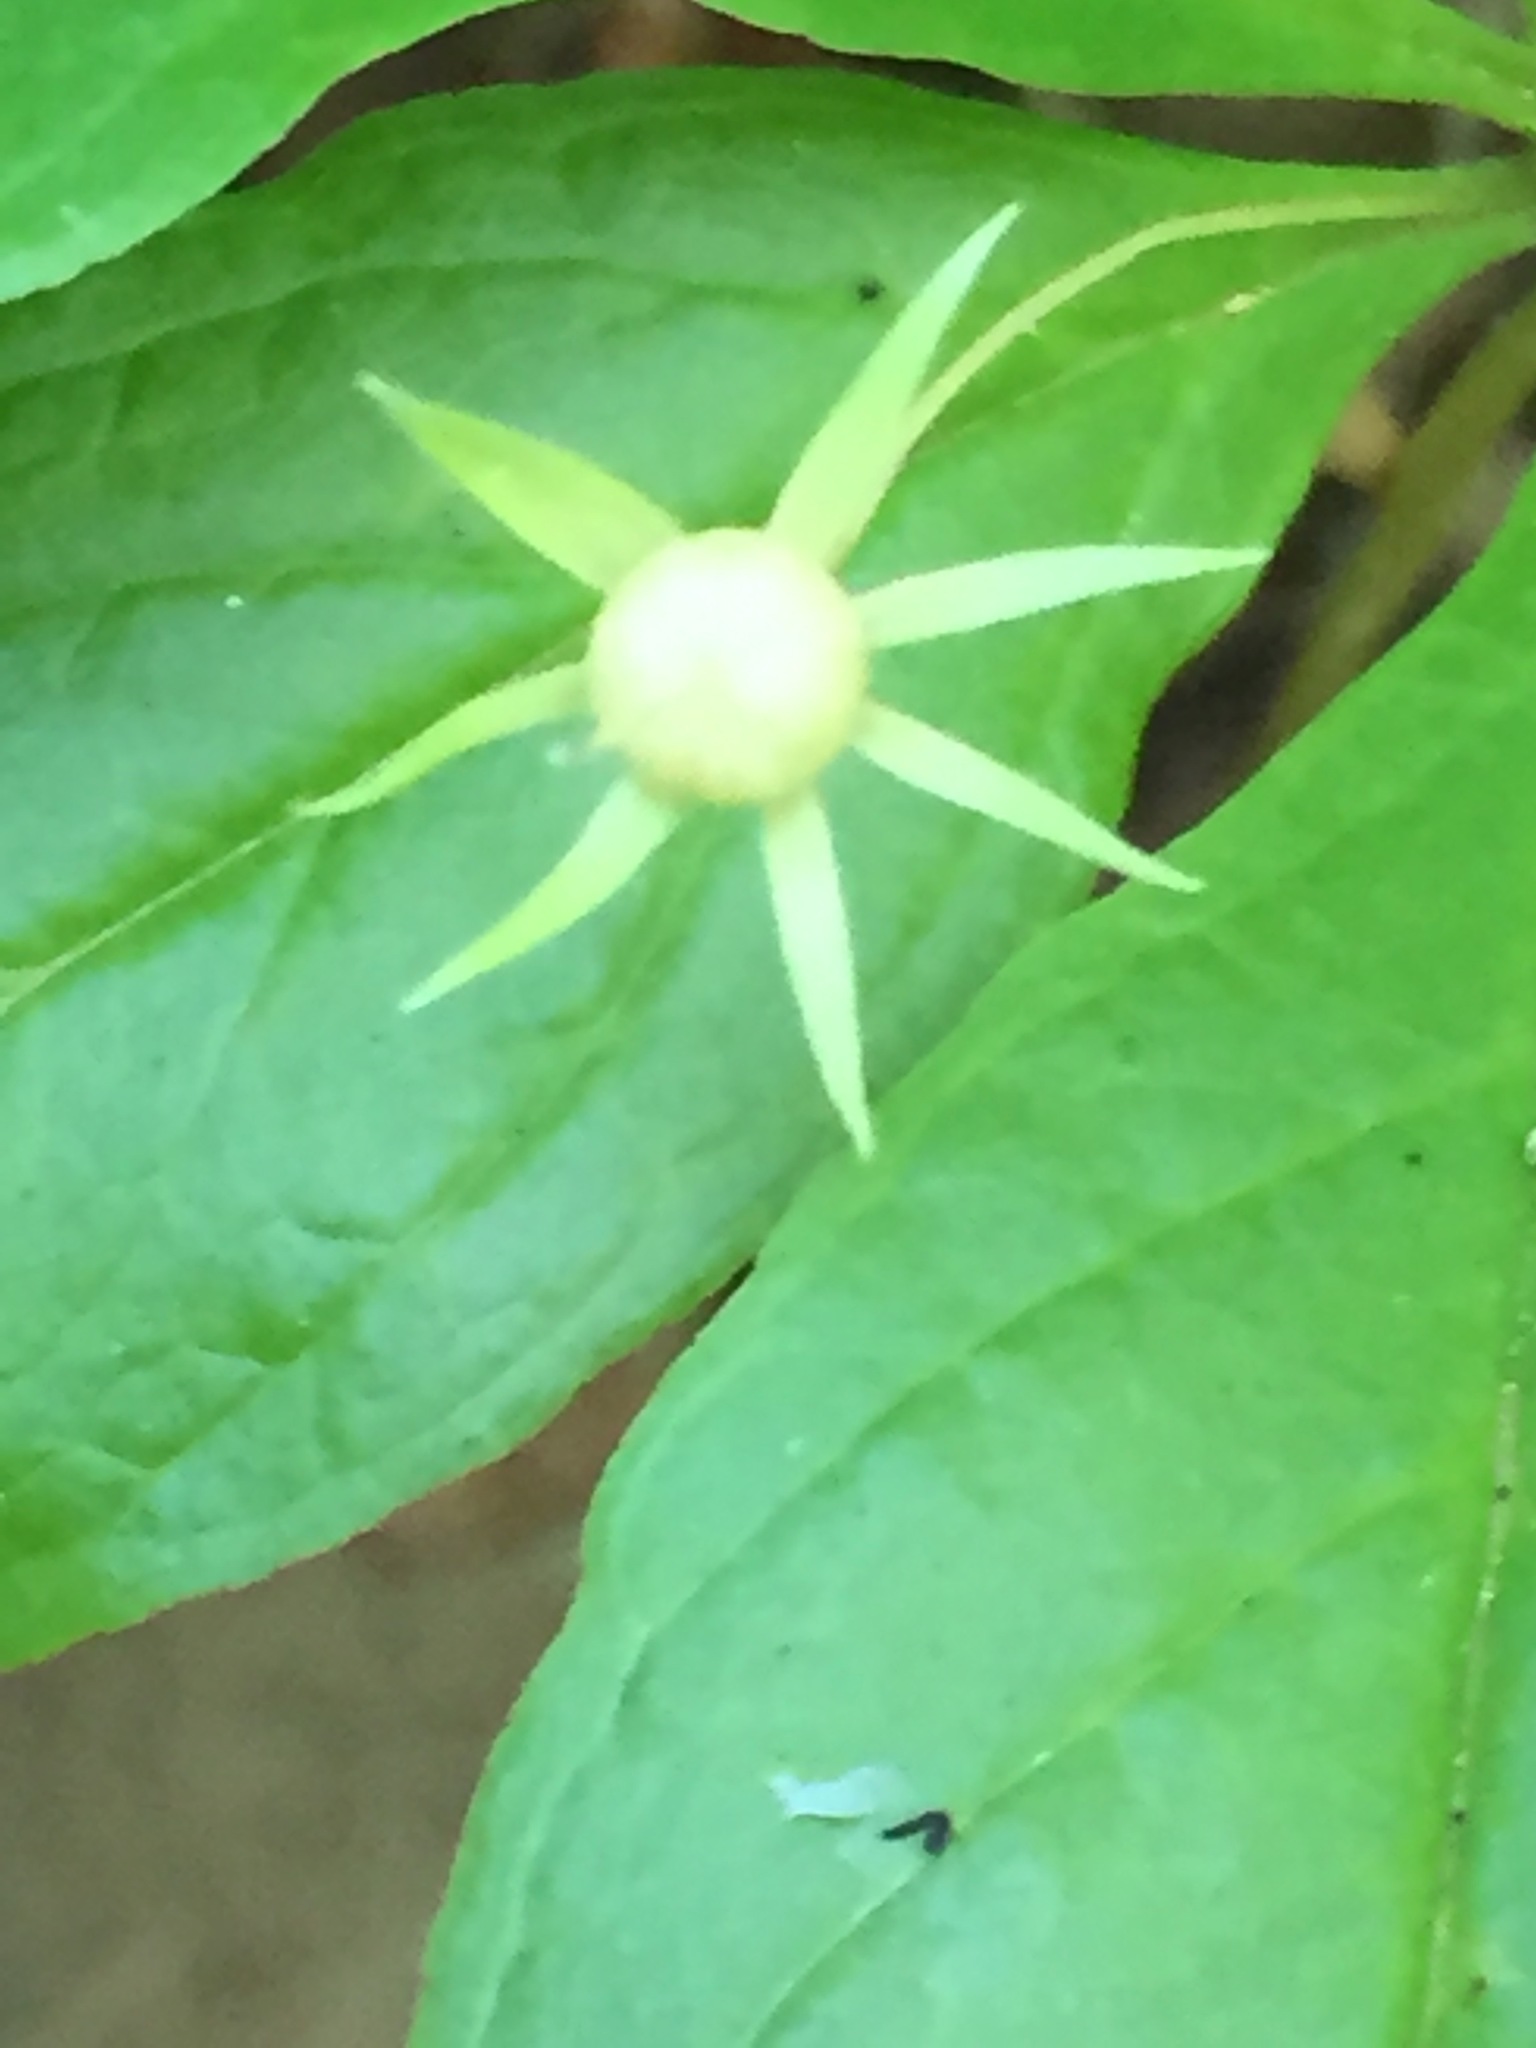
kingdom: Plantae
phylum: Tracheophyta
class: Magnoliopsida
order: Ericales
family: Primulaceae
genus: Lysimachia
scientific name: Lysimachia borealis
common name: American starflower
